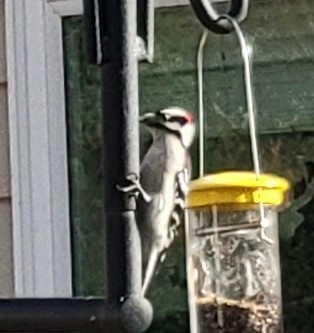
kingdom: Animalia
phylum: Chordata
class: Aves
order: Piciformes
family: Picidae
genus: Dryobates
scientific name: Dryobates pubescens
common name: Downy woodpecker
